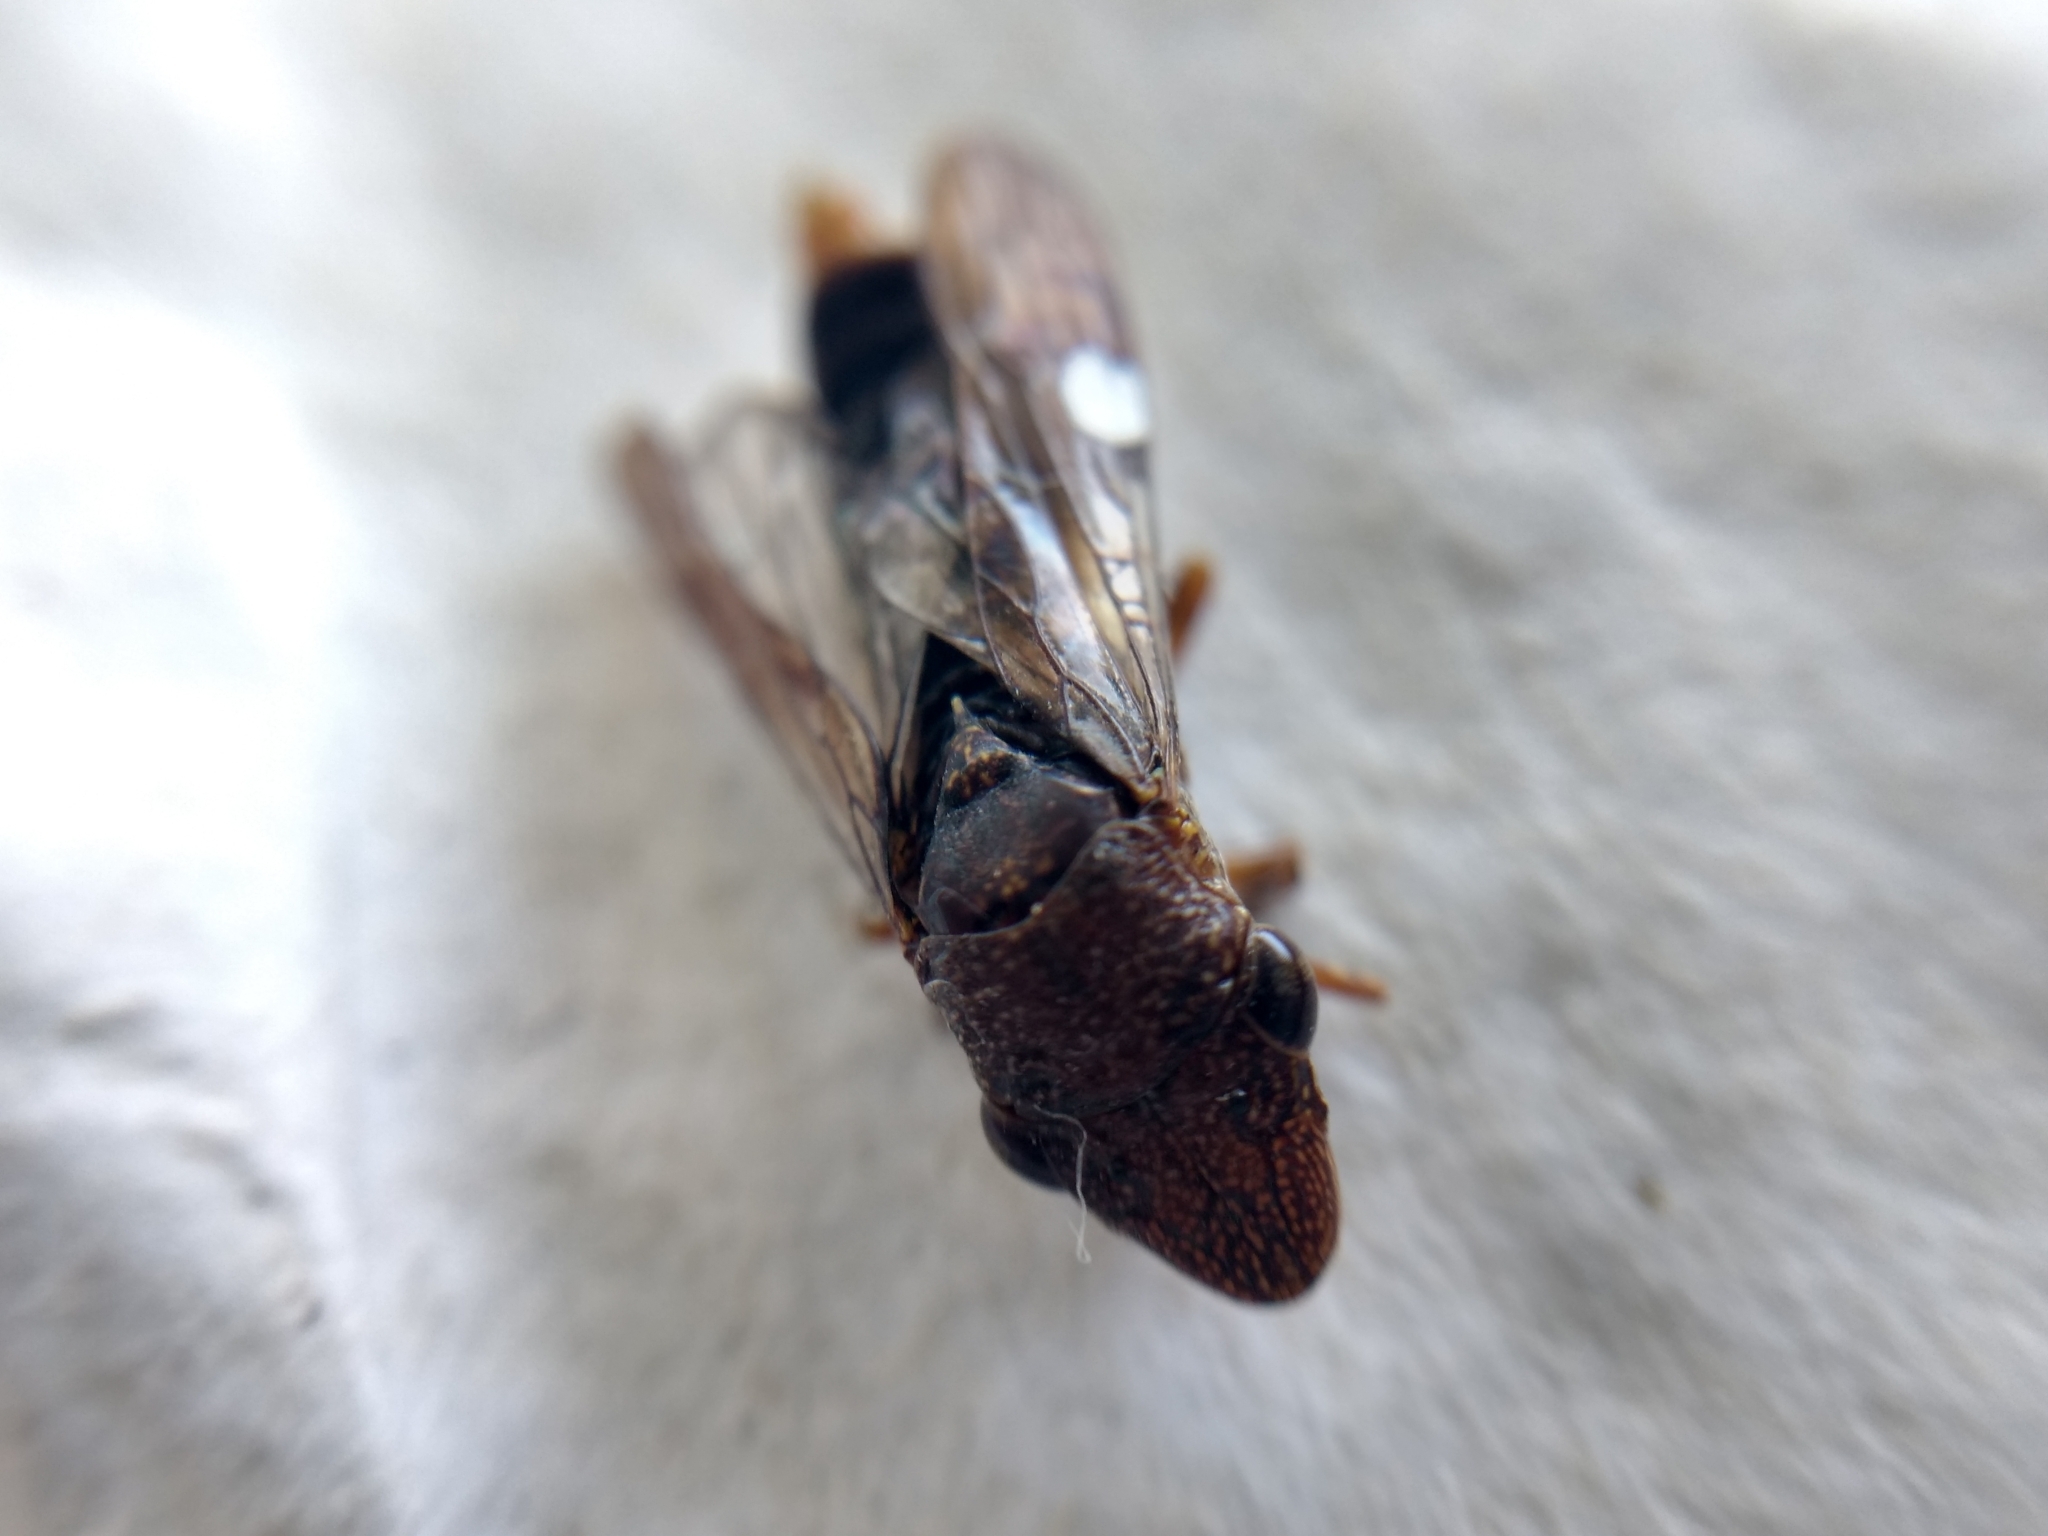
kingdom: Animalia
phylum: Arthropoda
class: Insecta
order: Hemiptera
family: Cicadellidae
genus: Homalodisca
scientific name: Homalodisca vitripennis
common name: Glassy-winged sharpshooter
